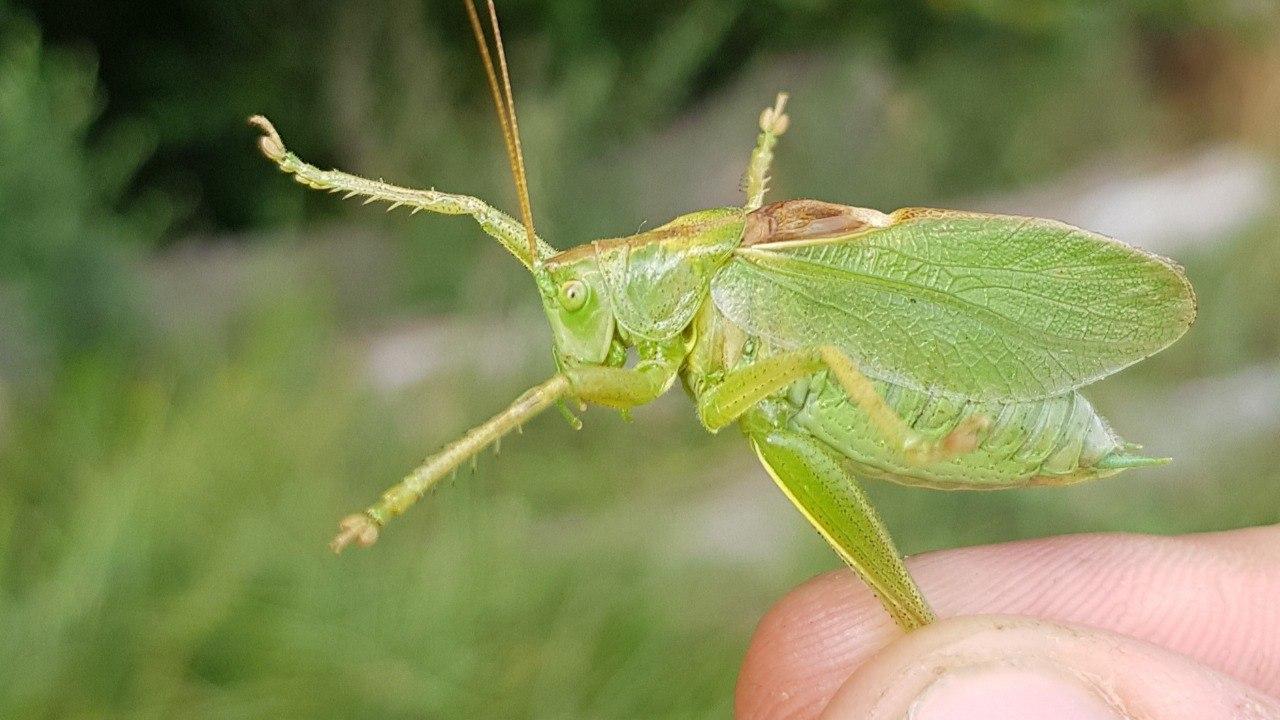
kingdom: Animalia
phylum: Arthropoda
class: Insecta
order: Orthoptera
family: Tettigoniidae
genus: Tettigonia
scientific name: Tettigonia cantans
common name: Upland green bush-cricket
